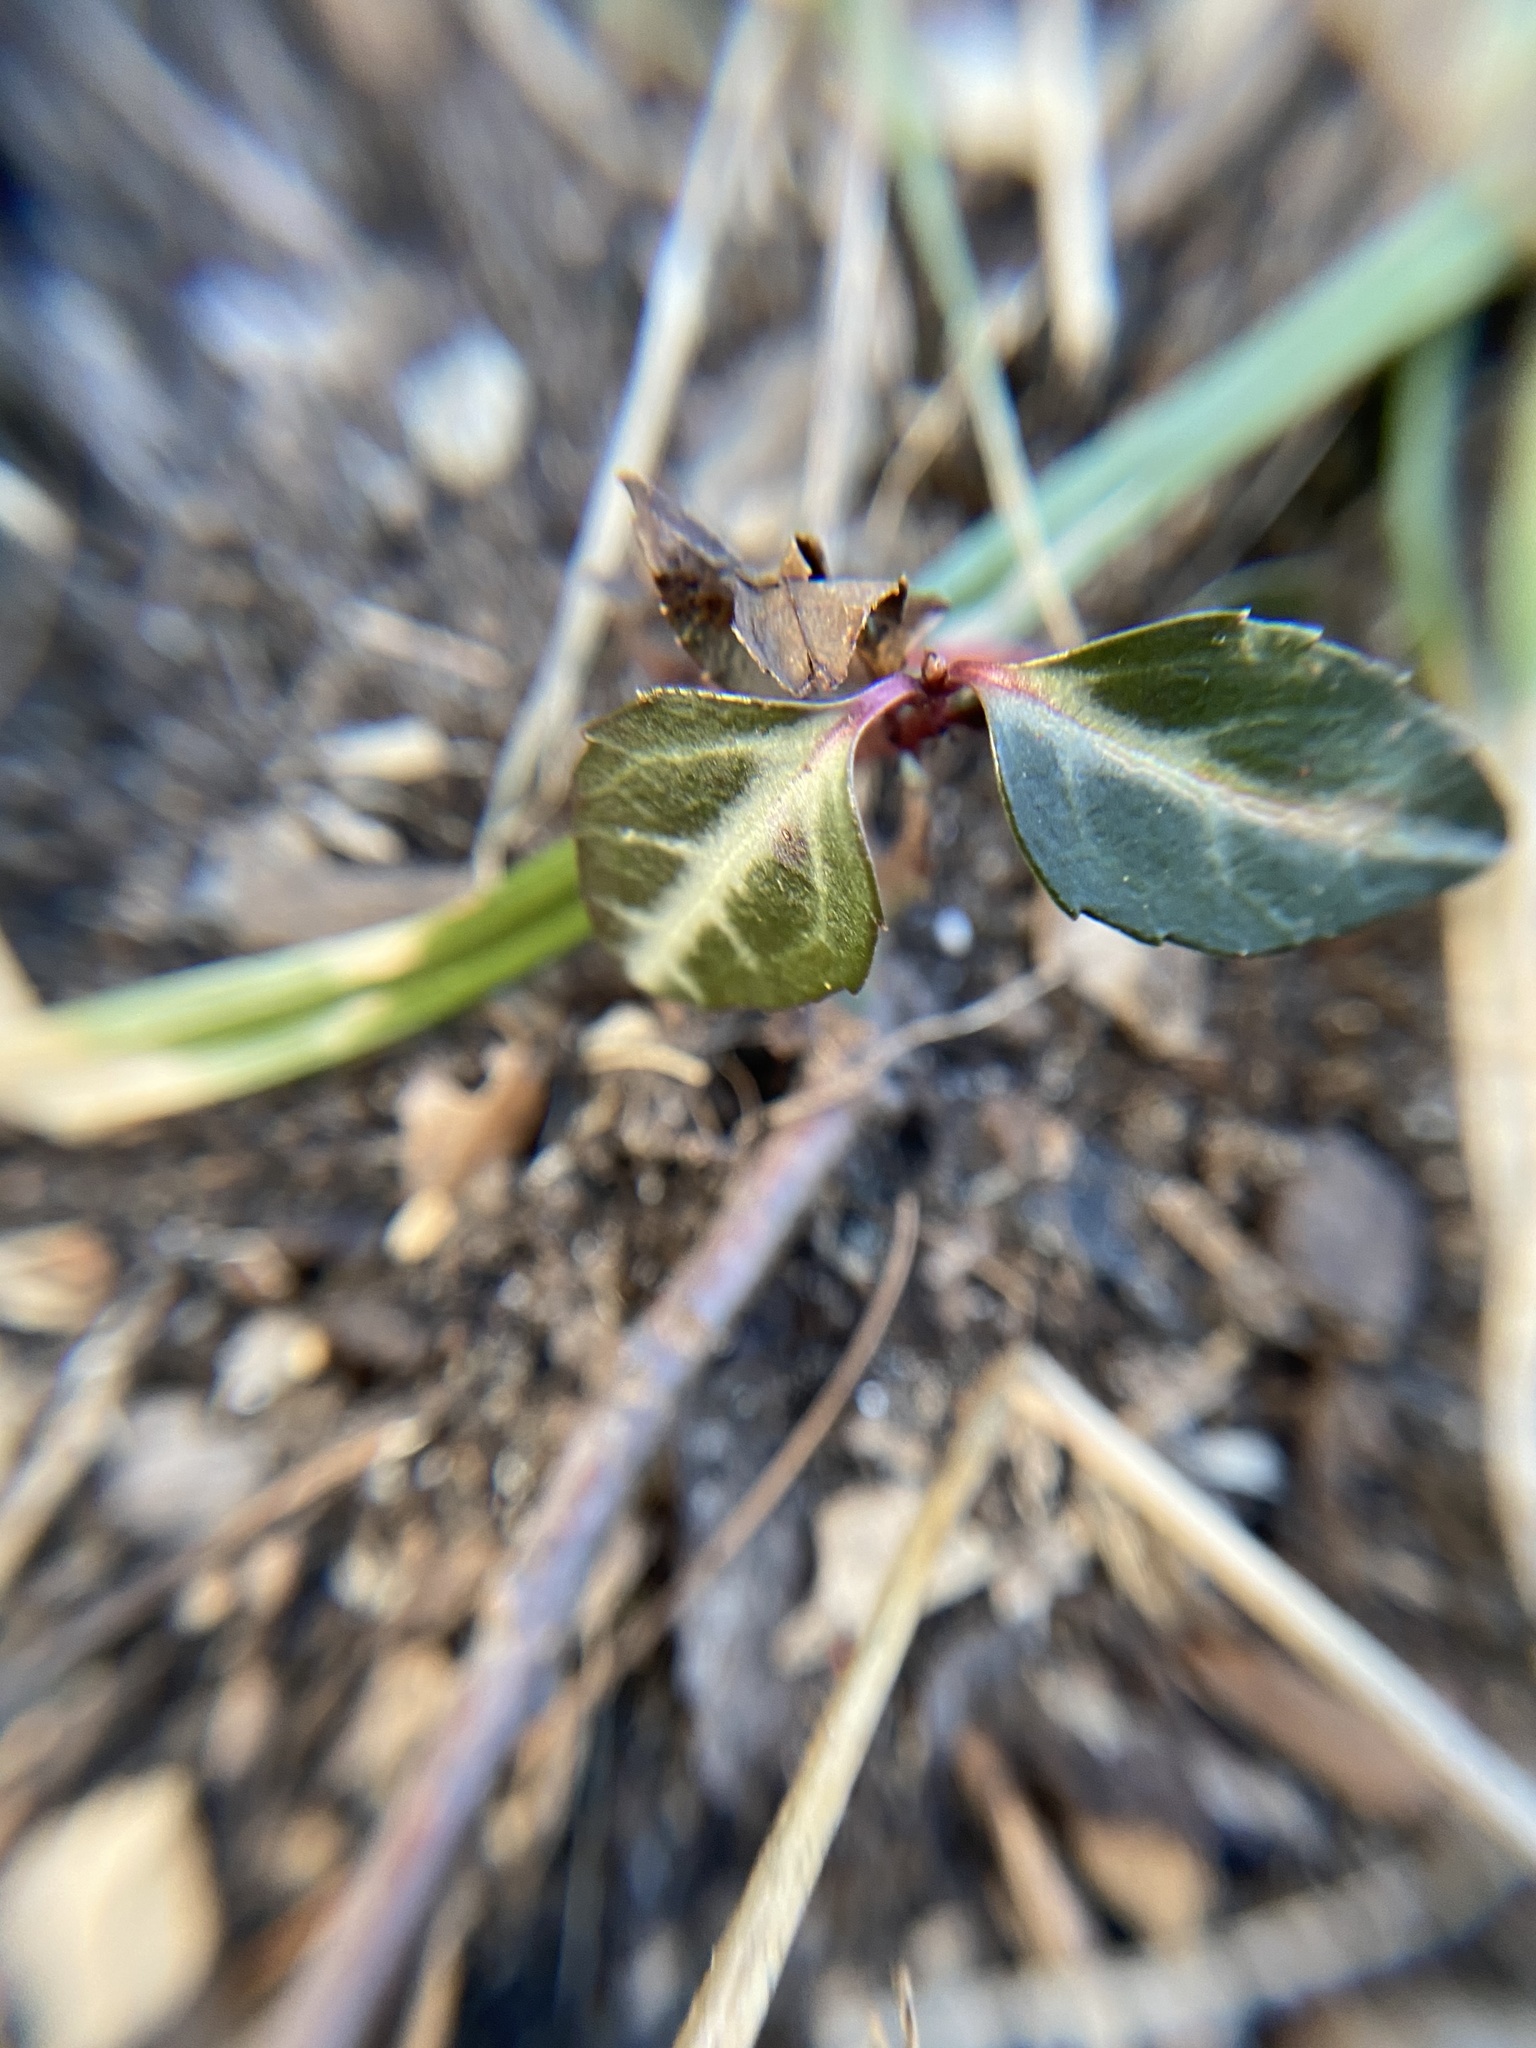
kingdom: Plantae
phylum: Tracheophyta
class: Magnoliopsida
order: Ericales
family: Ericaceae
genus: Chimaphila
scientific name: Chimaphila maculata
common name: Spotted pipsissewa
